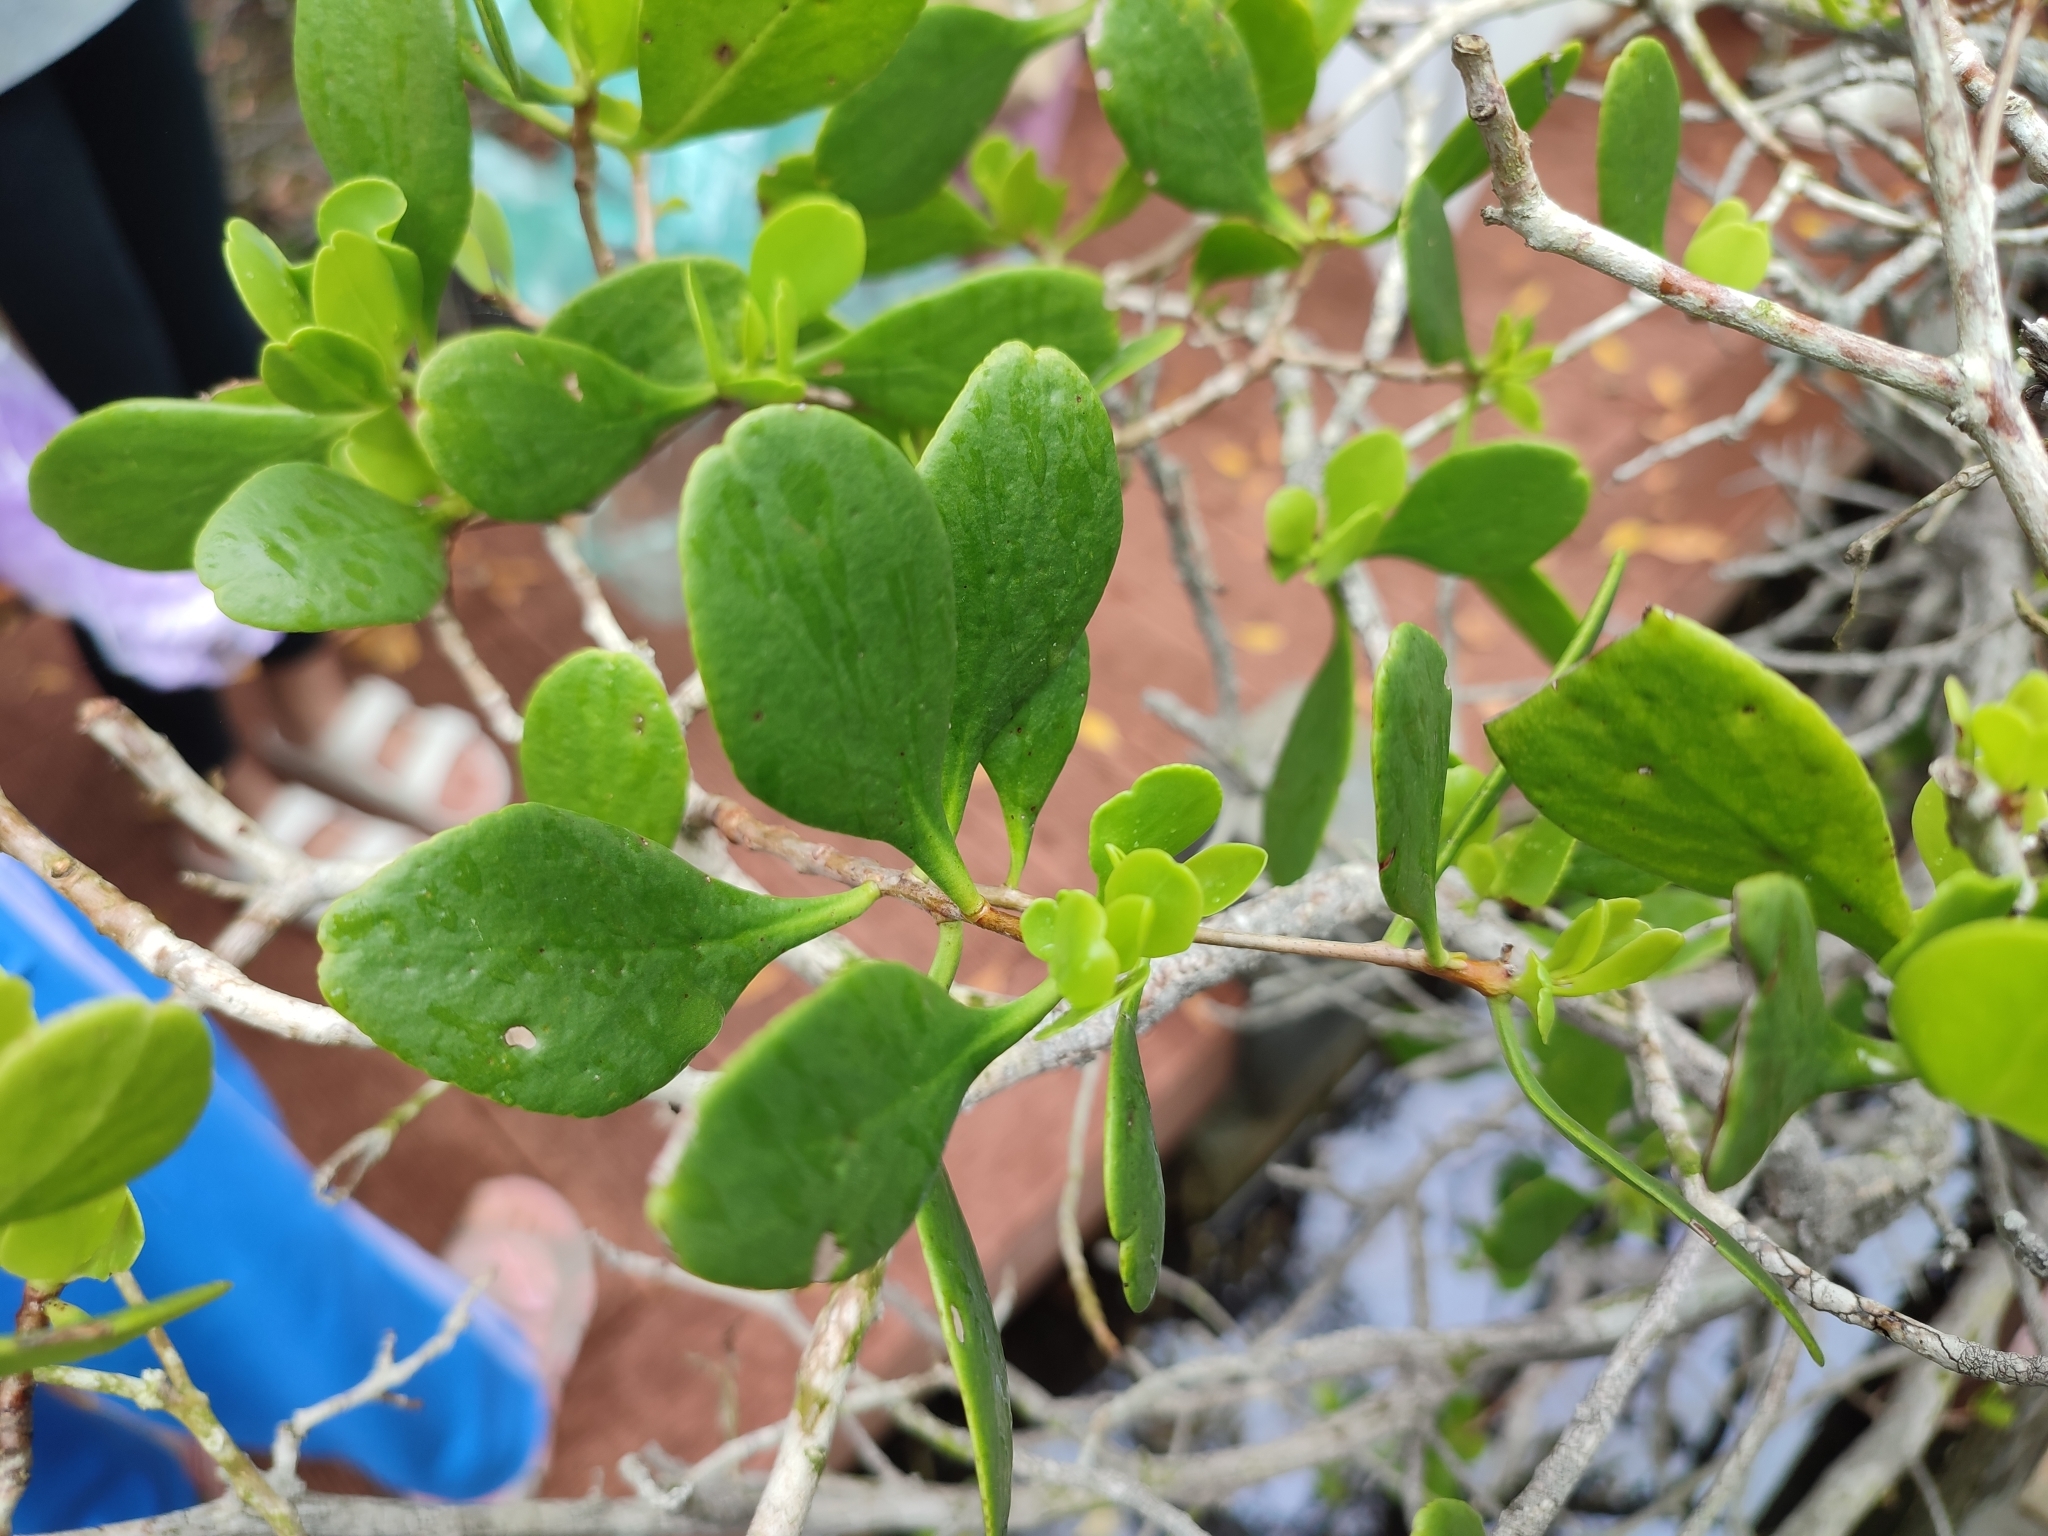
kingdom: Plantae
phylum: Tracheophyta
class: Magnoliopsida
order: Myrtales
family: Combretaceae
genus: Lumnitzera
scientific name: Lumnitzera racemosa
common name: White-flowered black mangrove
